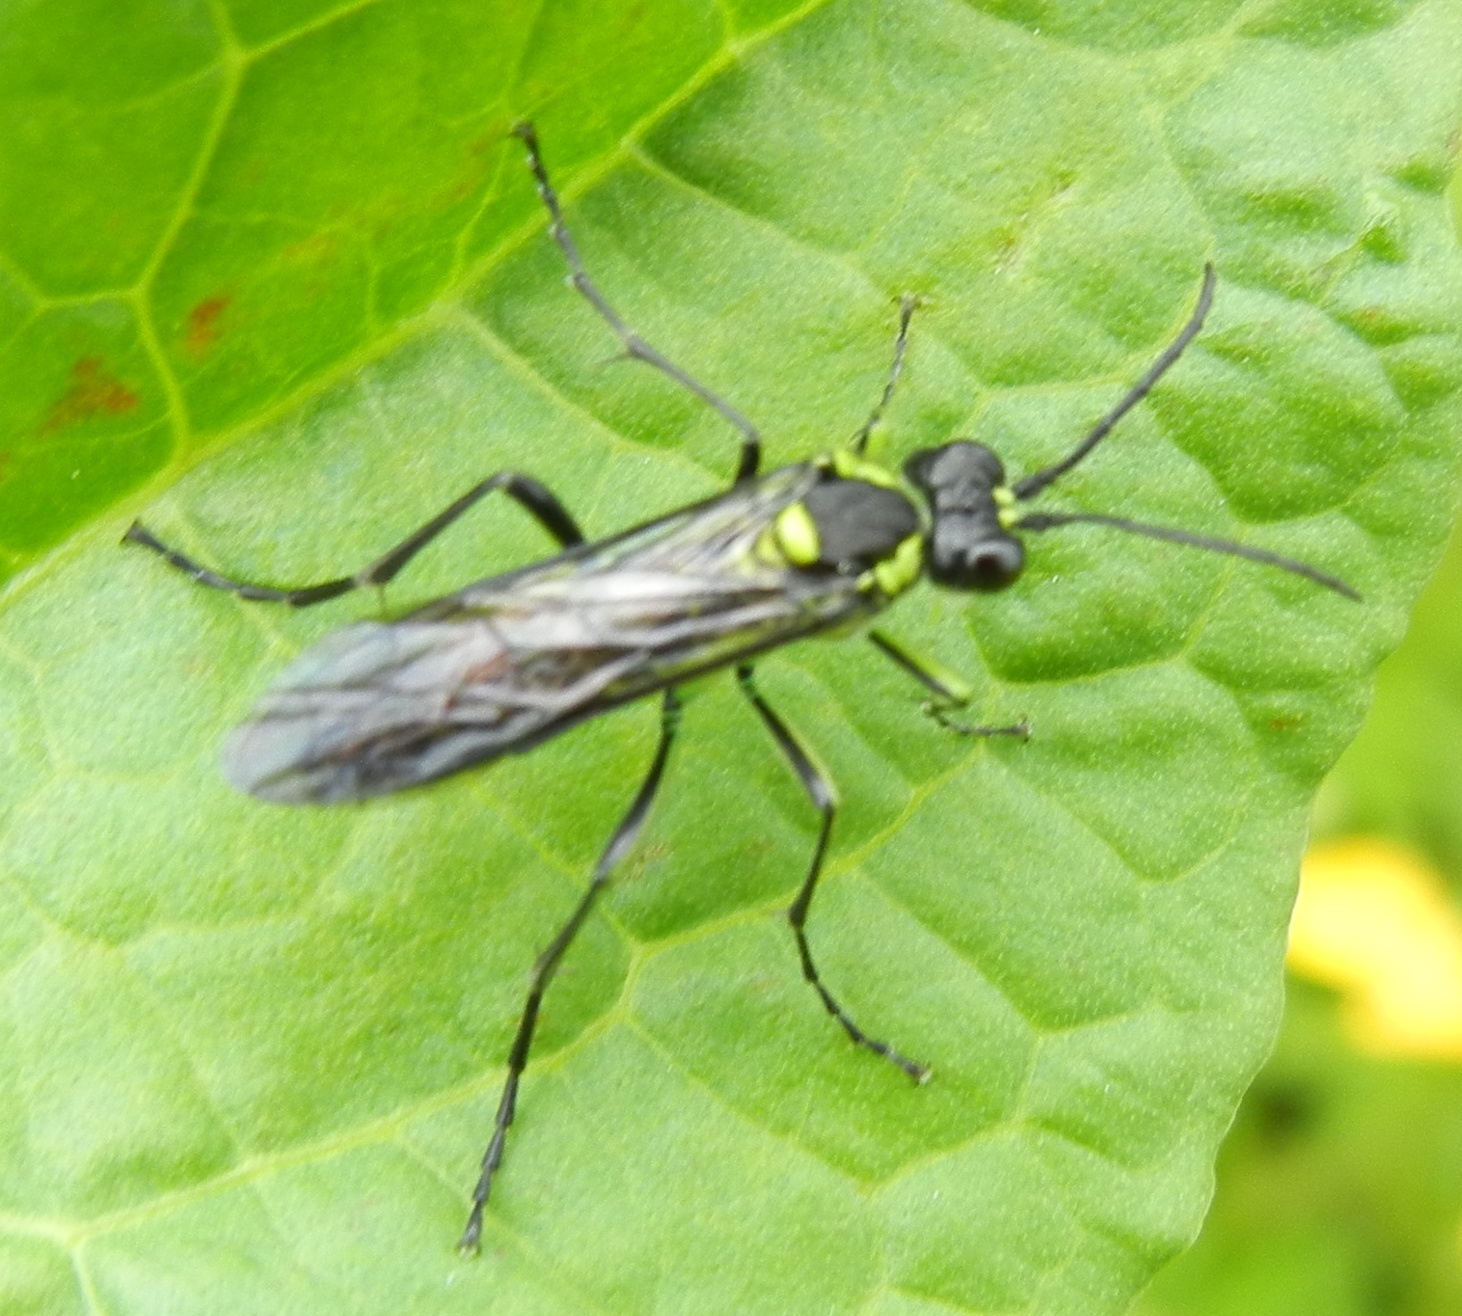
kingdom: Animalia
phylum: Arthropoda
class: Insecta
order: Hymenoptera
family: Tenthredinidae
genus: Tenthredo
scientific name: Tenthredo mesomela
